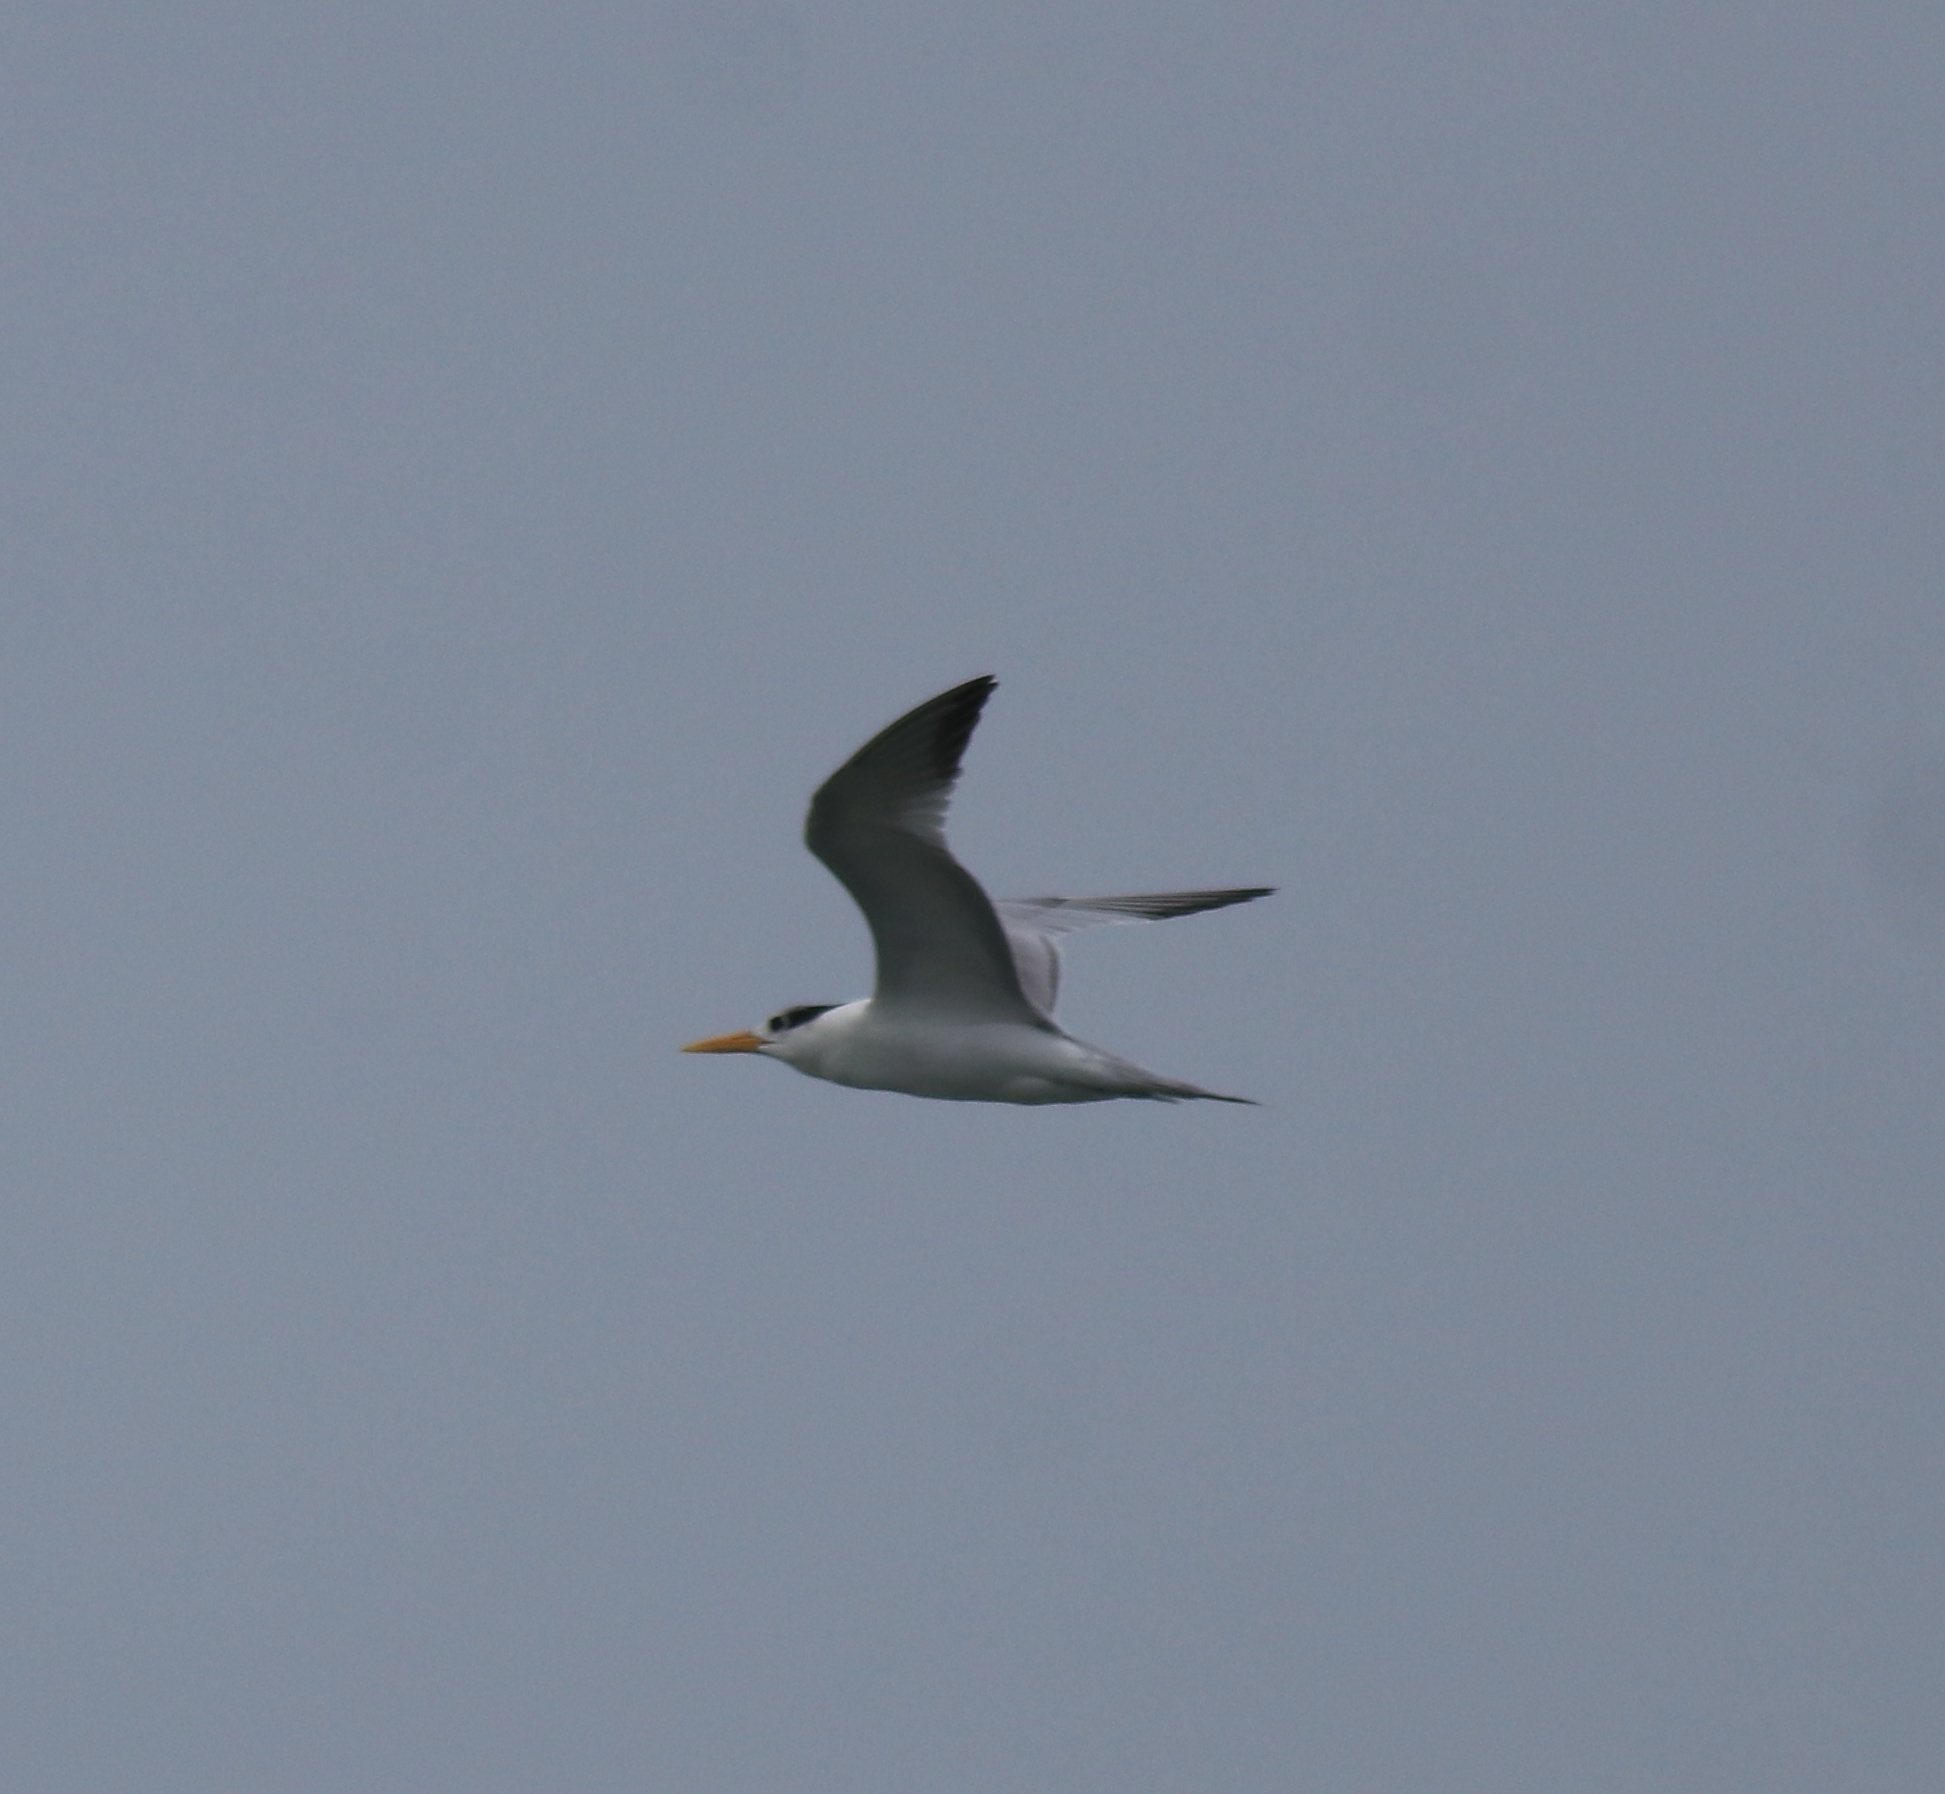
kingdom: Animalia
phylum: Chordata
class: Aves
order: Charadriiformes
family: Laridae
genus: Thalasseus
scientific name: Thalasseus bengalensis
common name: Lesser crested tern
